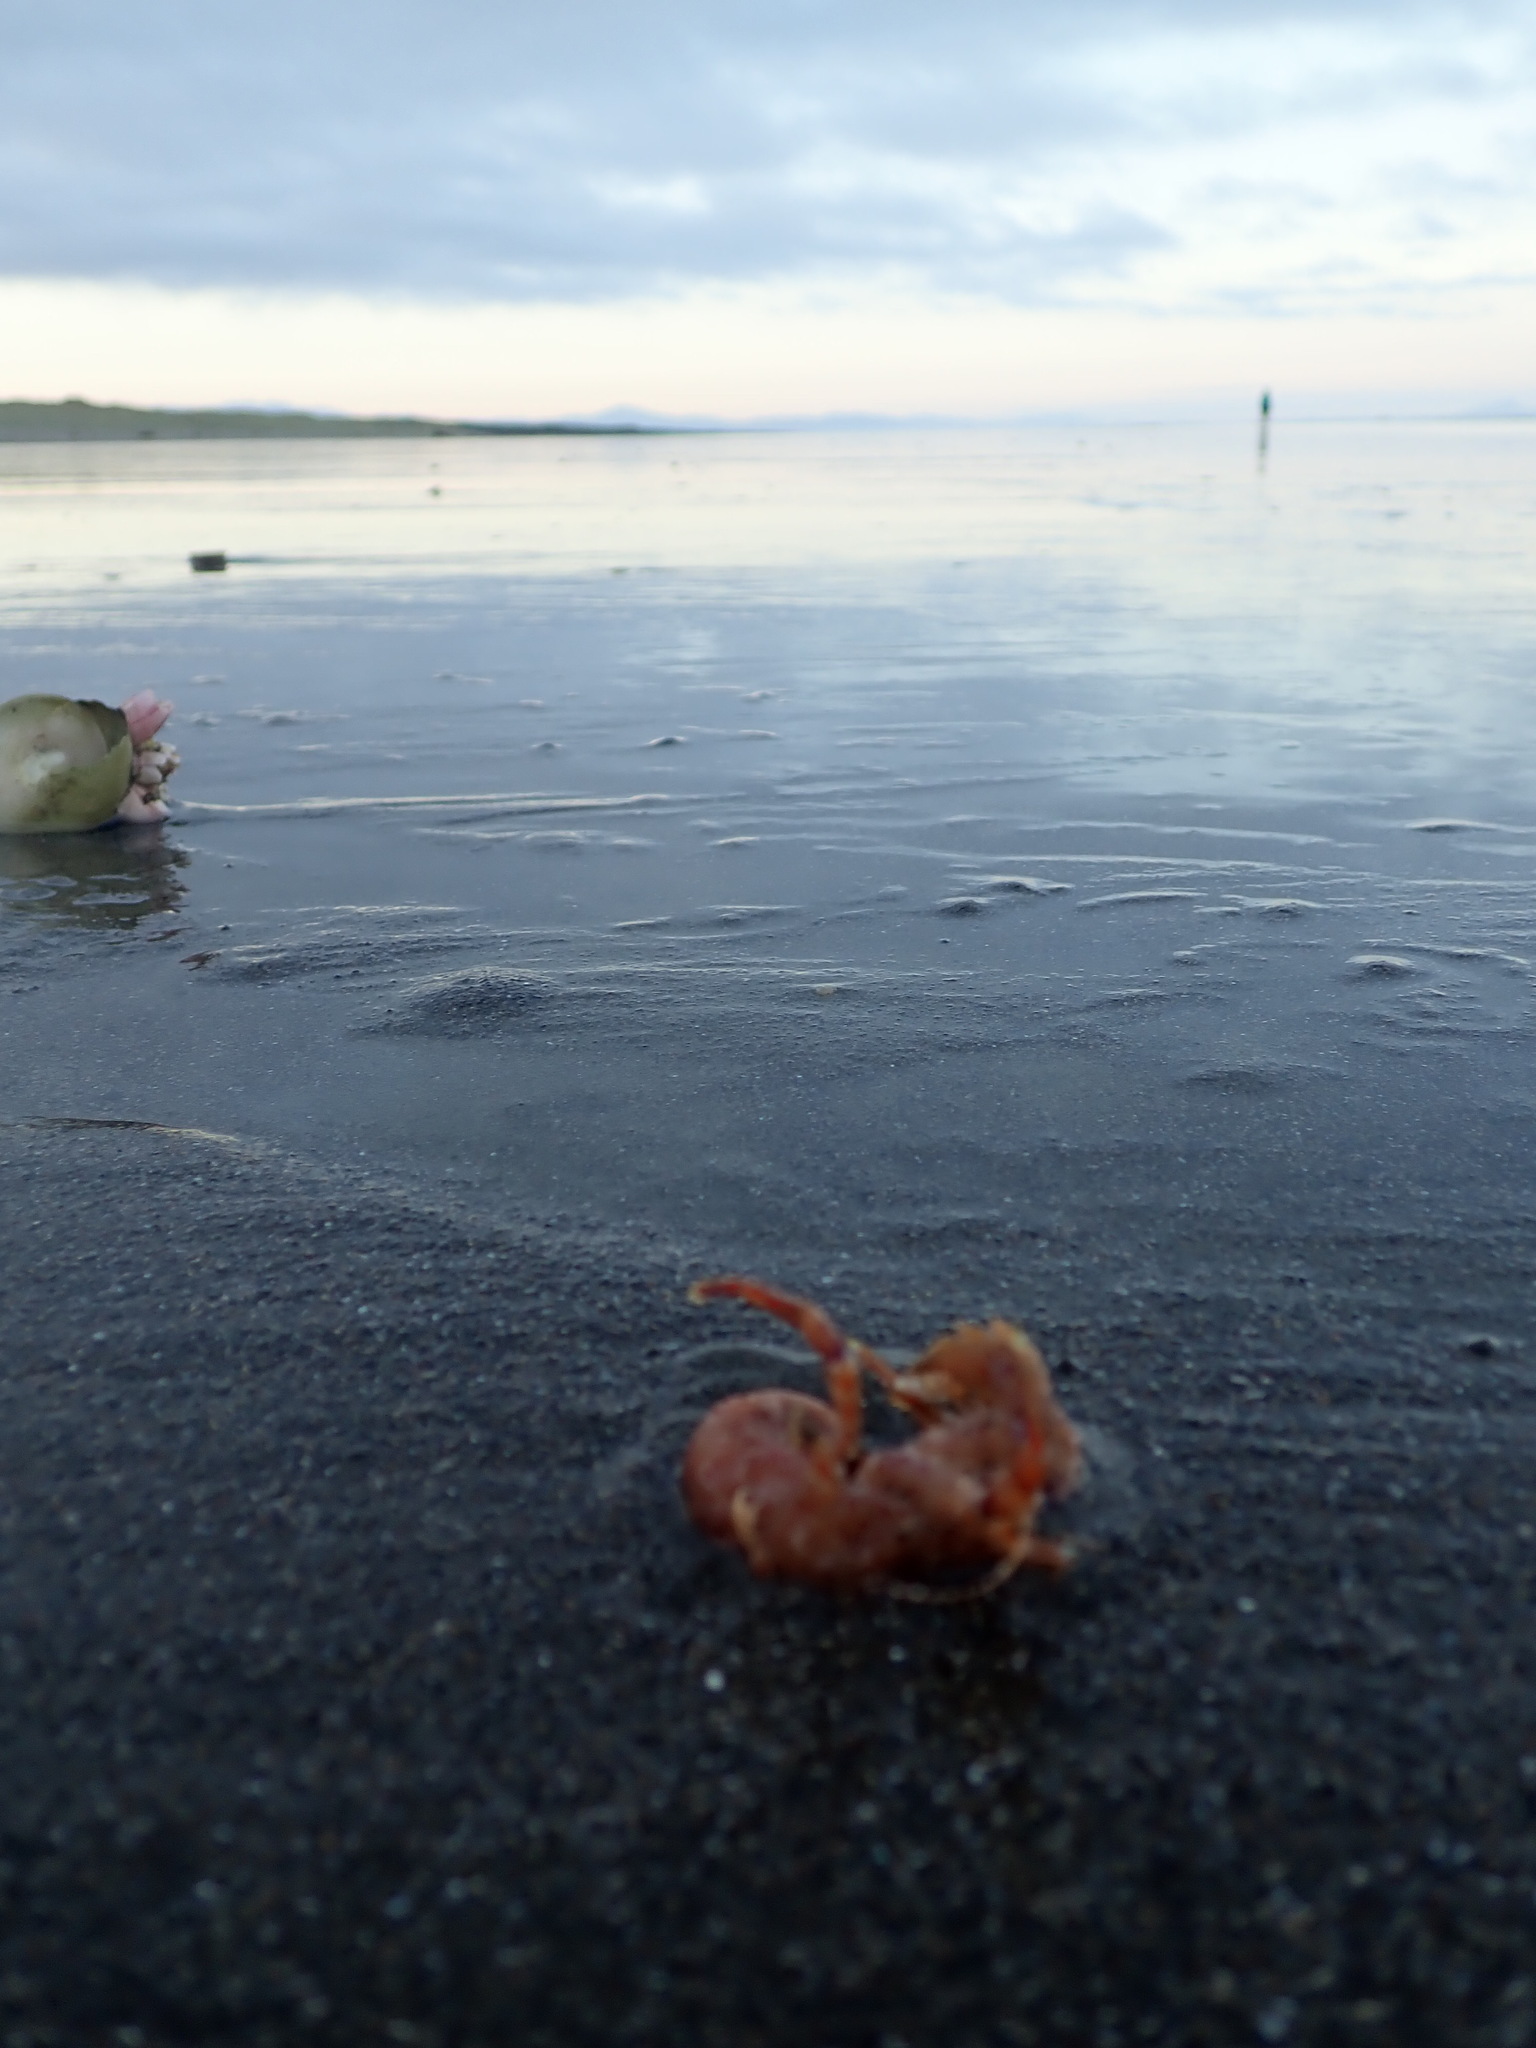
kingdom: Animalia
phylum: Arthropoda
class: Malacostraca
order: Decapoda
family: Paguridae
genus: Diacanthurus
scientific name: Diacanthurus spinulimanus
